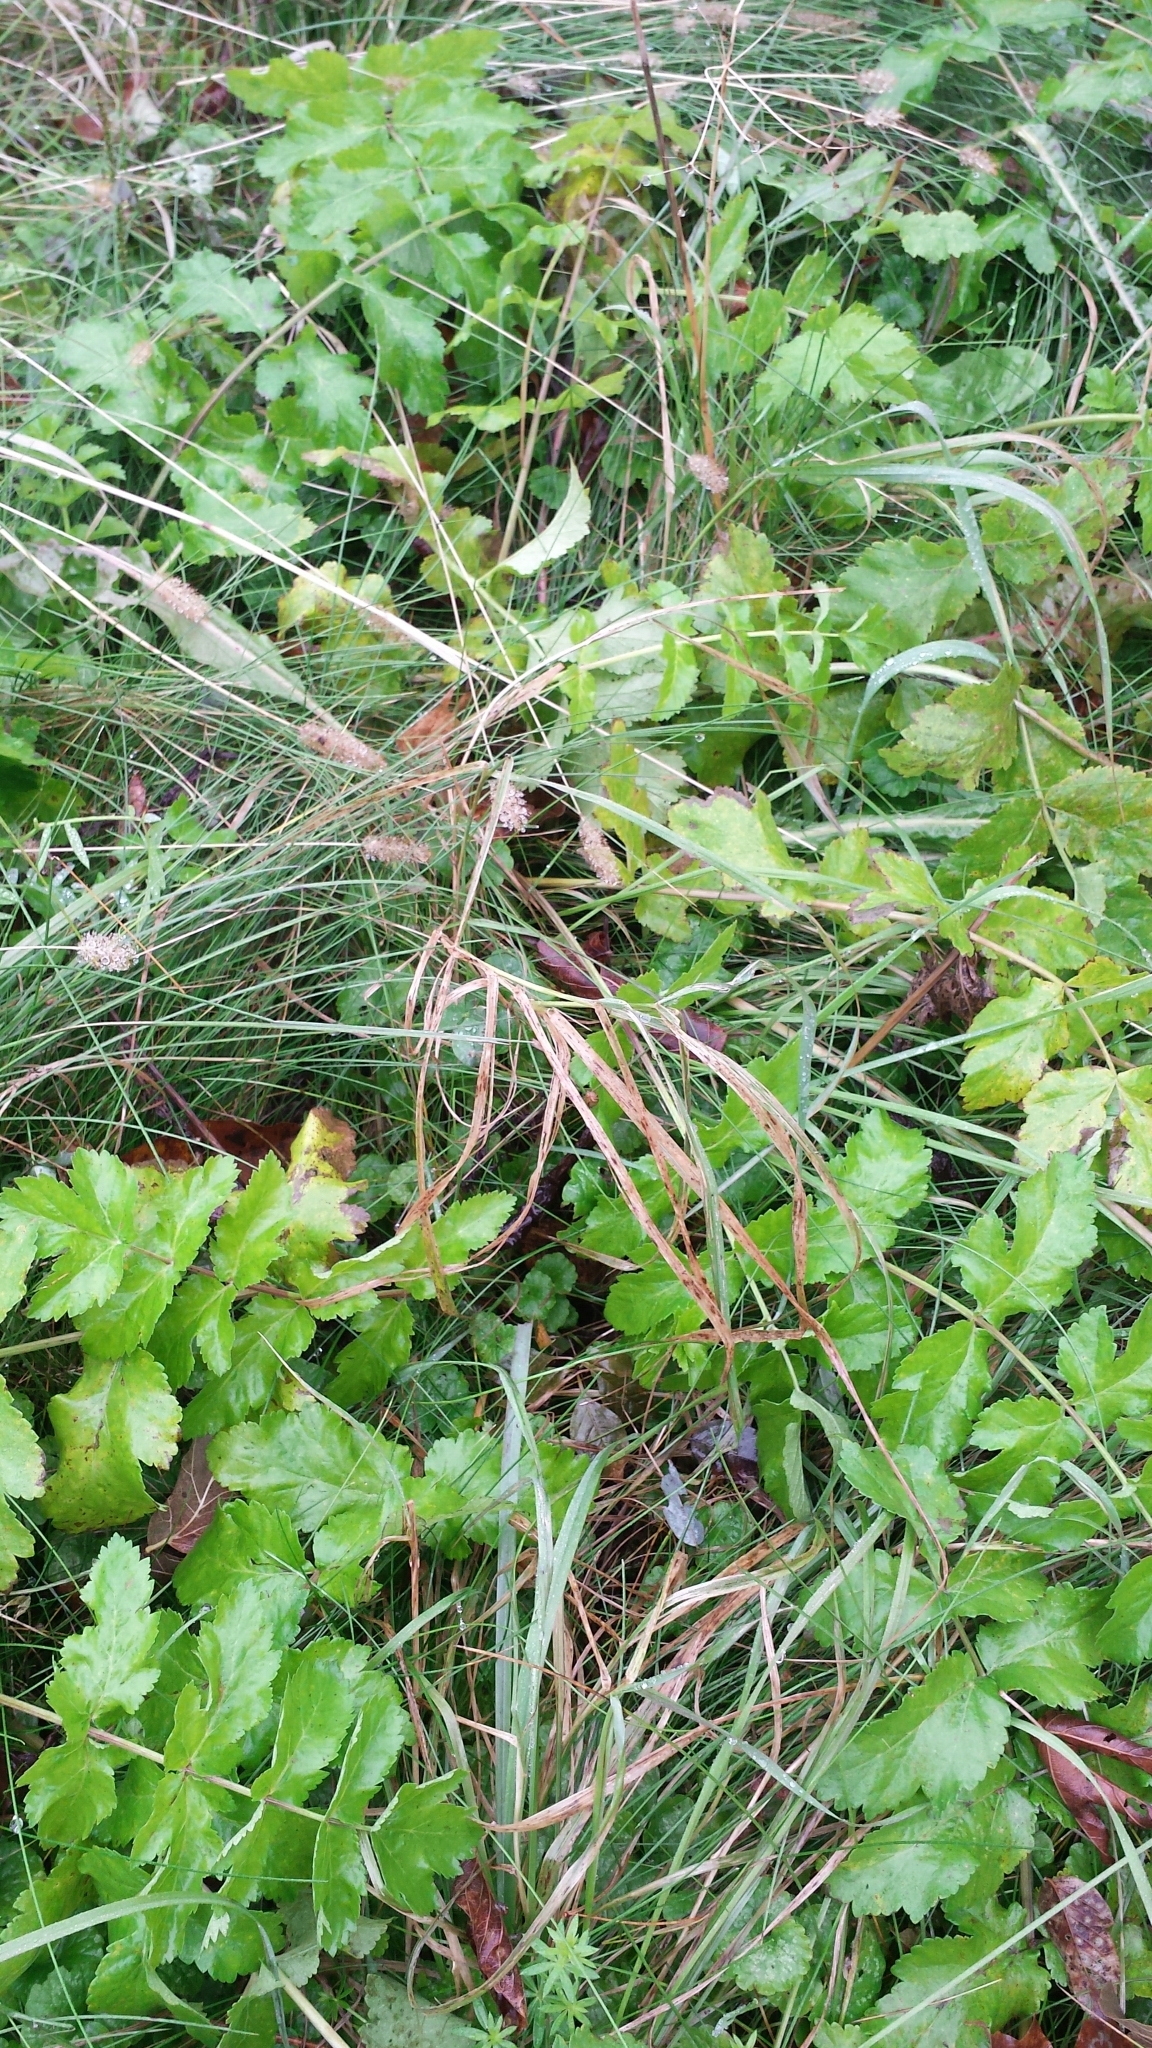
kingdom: Plantae
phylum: Tracheophyta
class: Magnoliopsida
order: Apiales
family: Apiaceae
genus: Pastinaca
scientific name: Pastinaca sativa
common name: Wild parsnip
